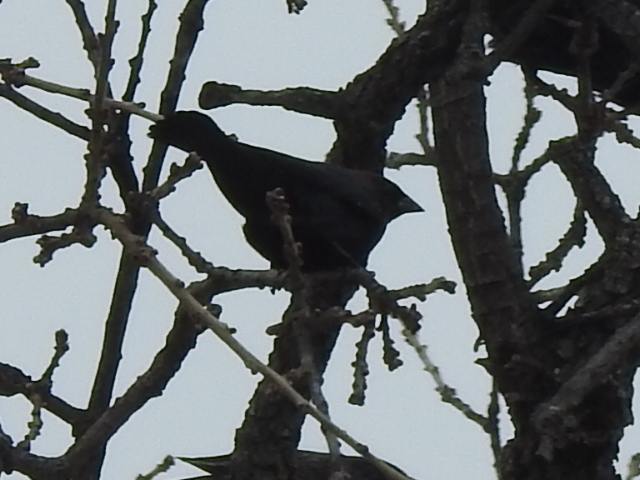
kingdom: Animalia
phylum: Chordata
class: Aves
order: Passeriformes
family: Icteridae
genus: Molothrus
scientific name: Molothrus ater
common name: Brown-headed cowbird
